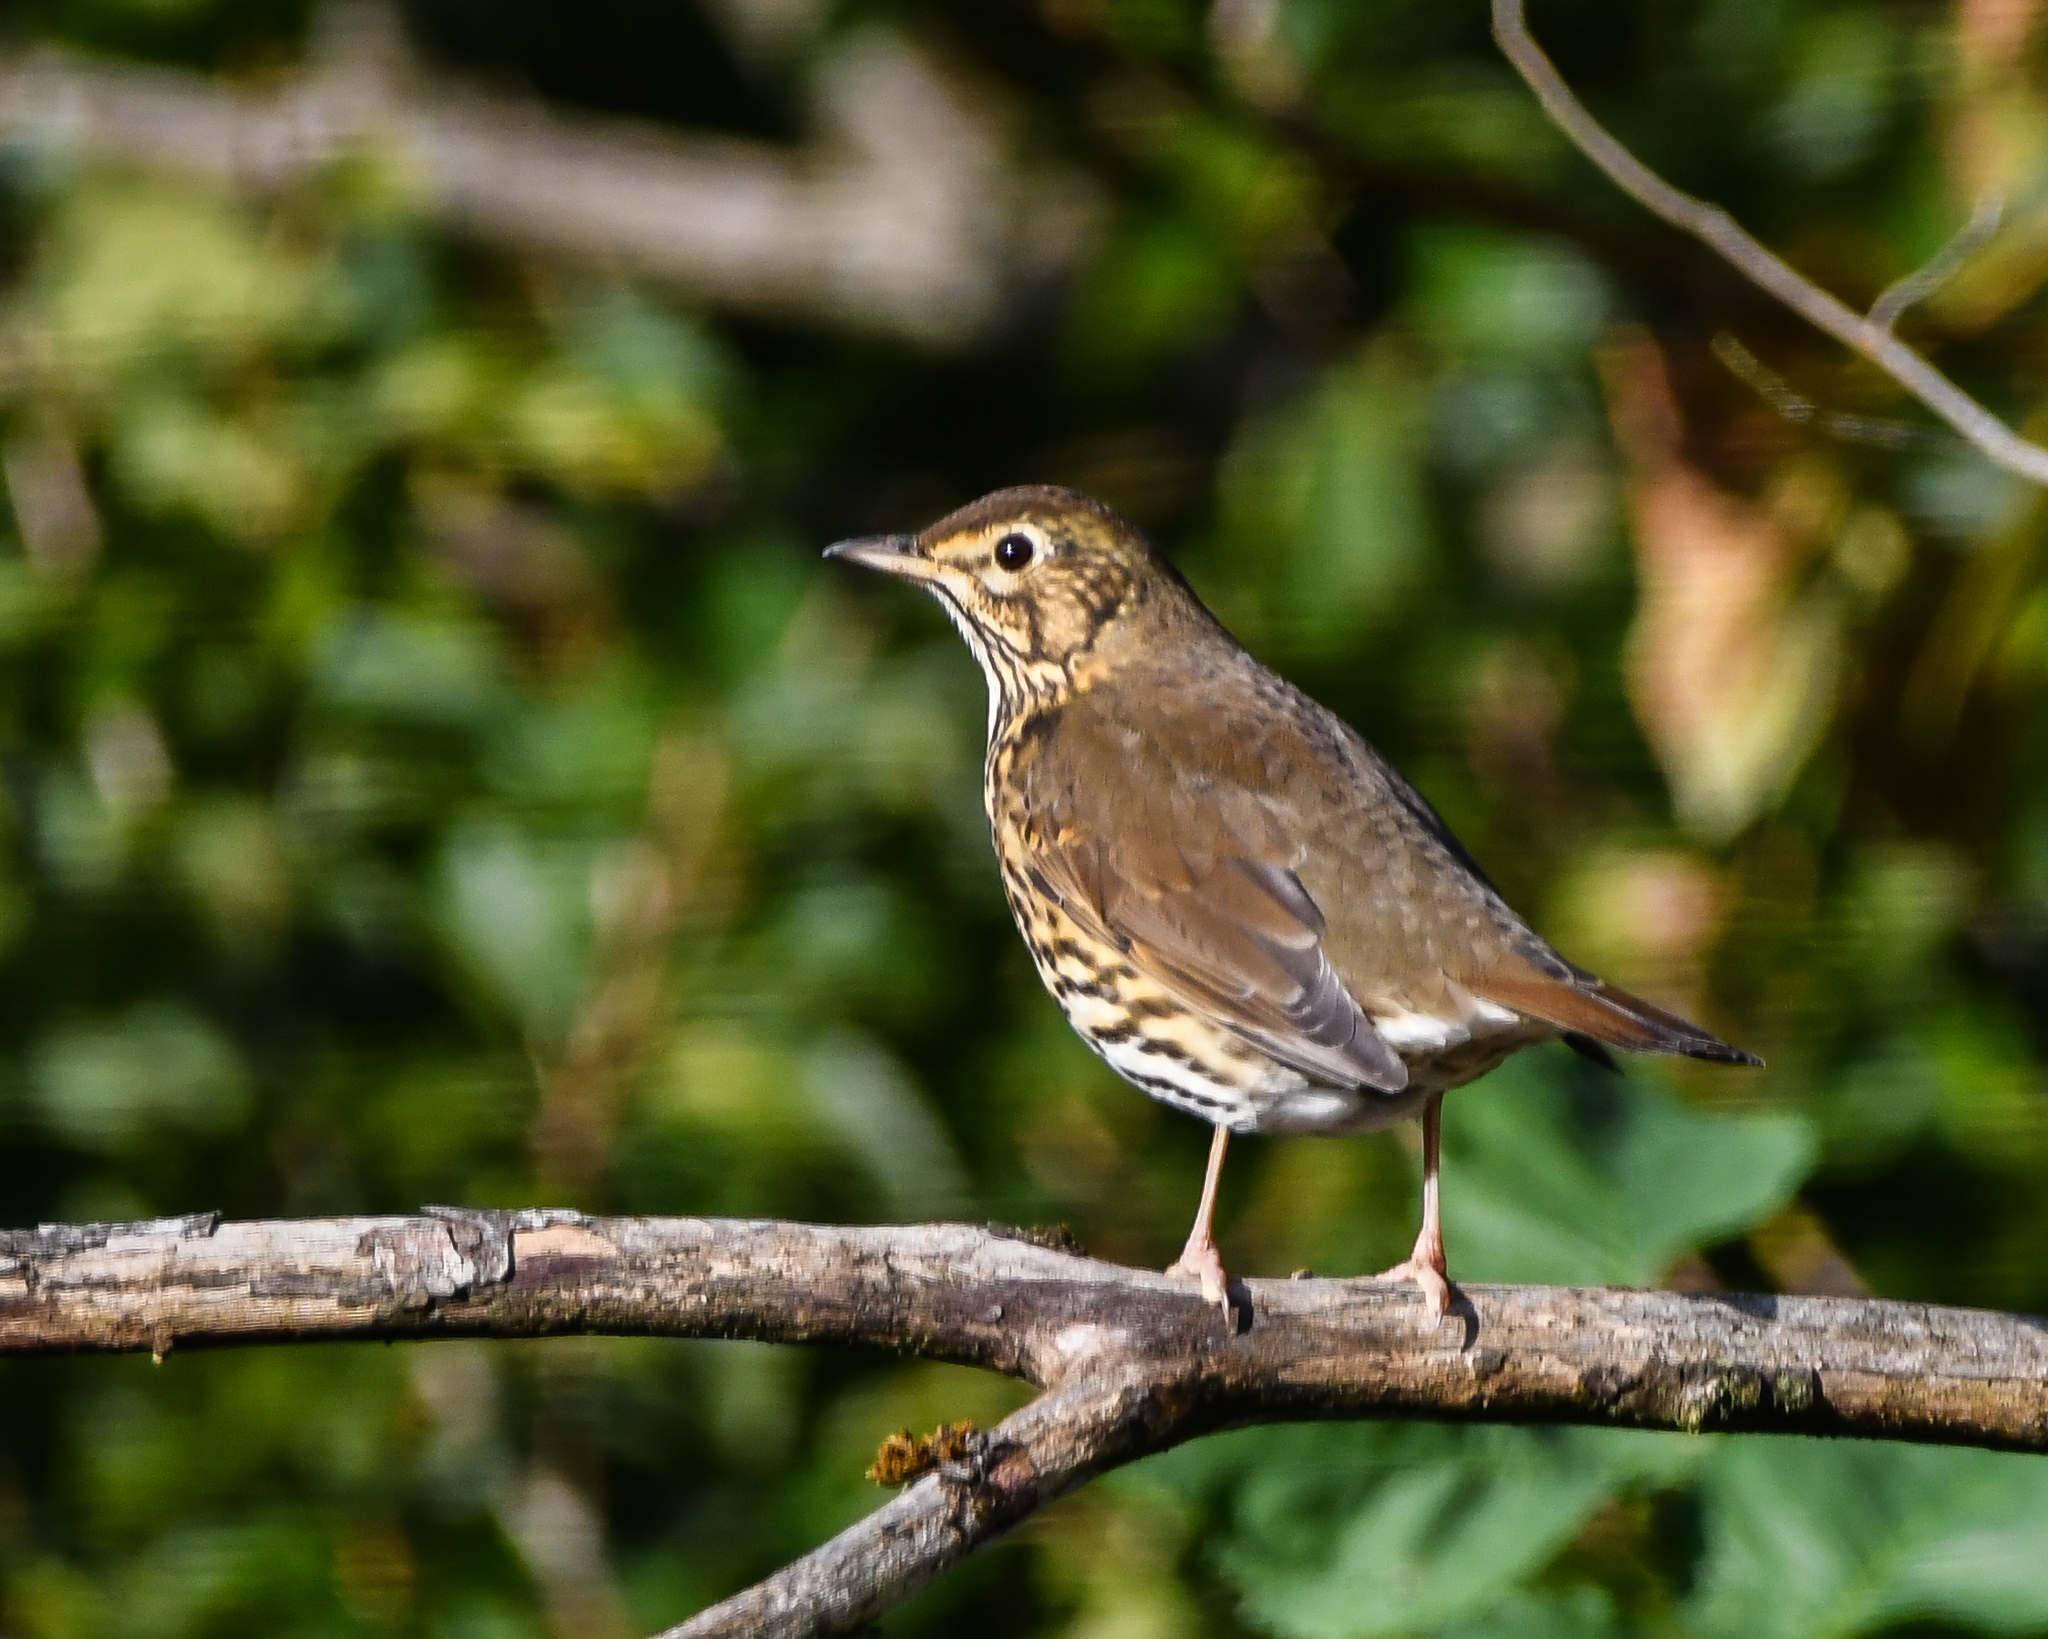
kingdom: Animalia
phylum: Chordata
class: Aves
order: Passeriformes
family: Turdidae
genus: Turdus
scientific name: Turdus philomelos
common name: Song thrush
